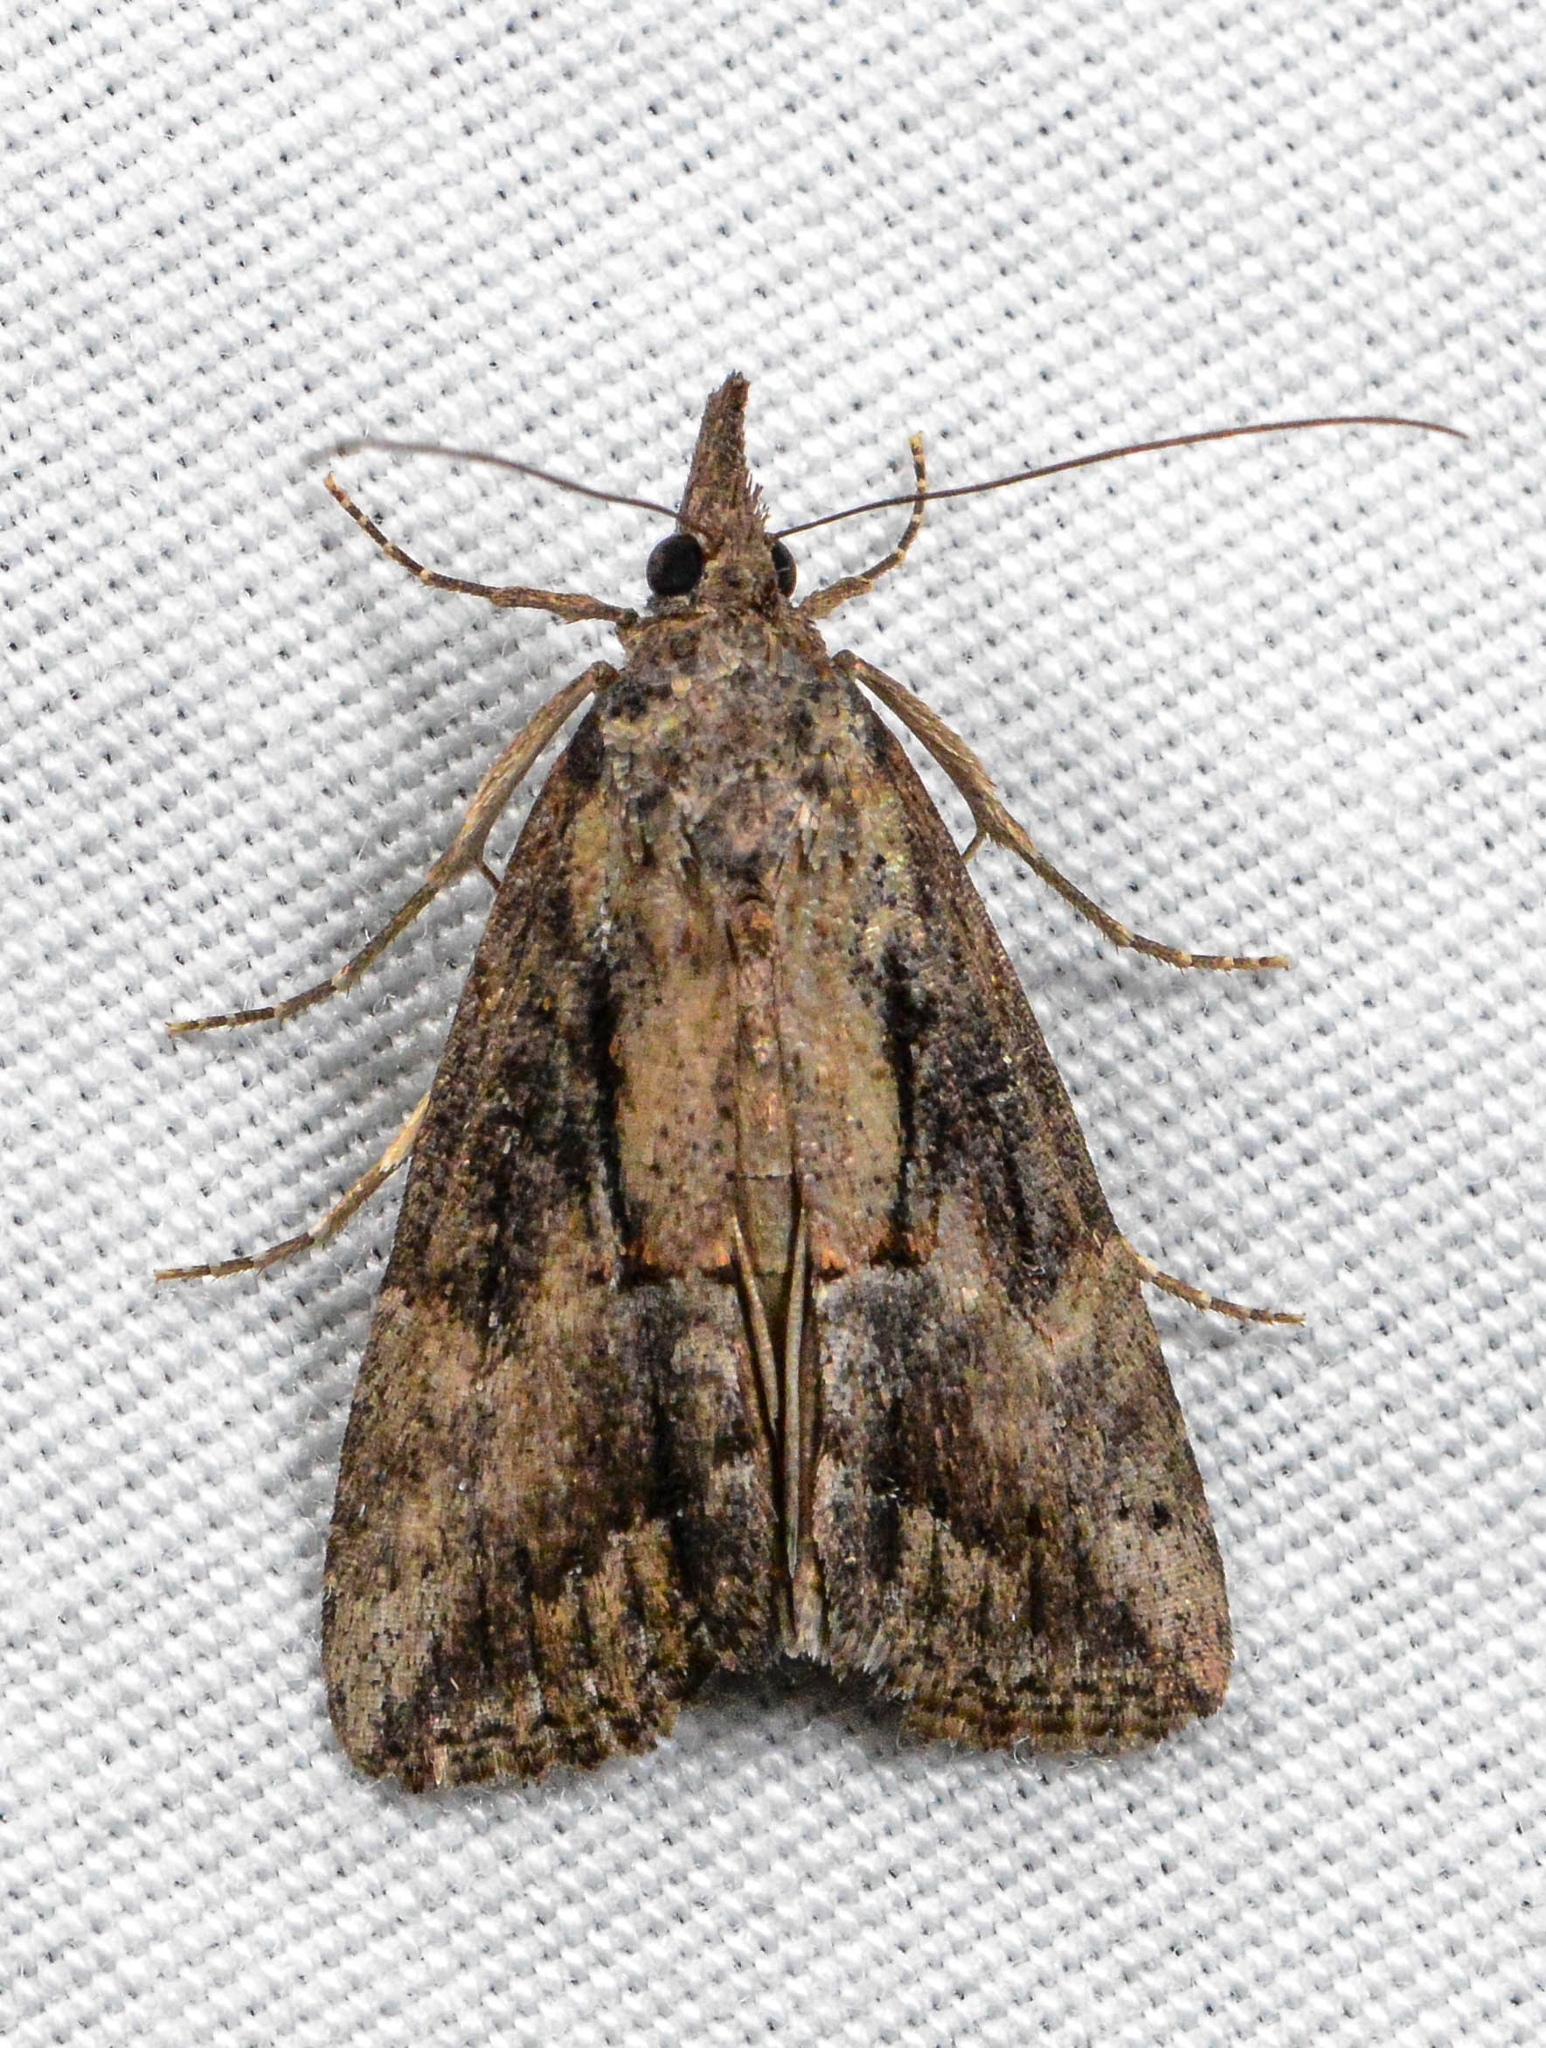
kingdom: Animalia
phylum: Arthropoda
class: Insecta
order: Lepidoptera
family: Erebidae
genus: Hypena
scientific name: Hypena scabra
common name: Green cloverworm
